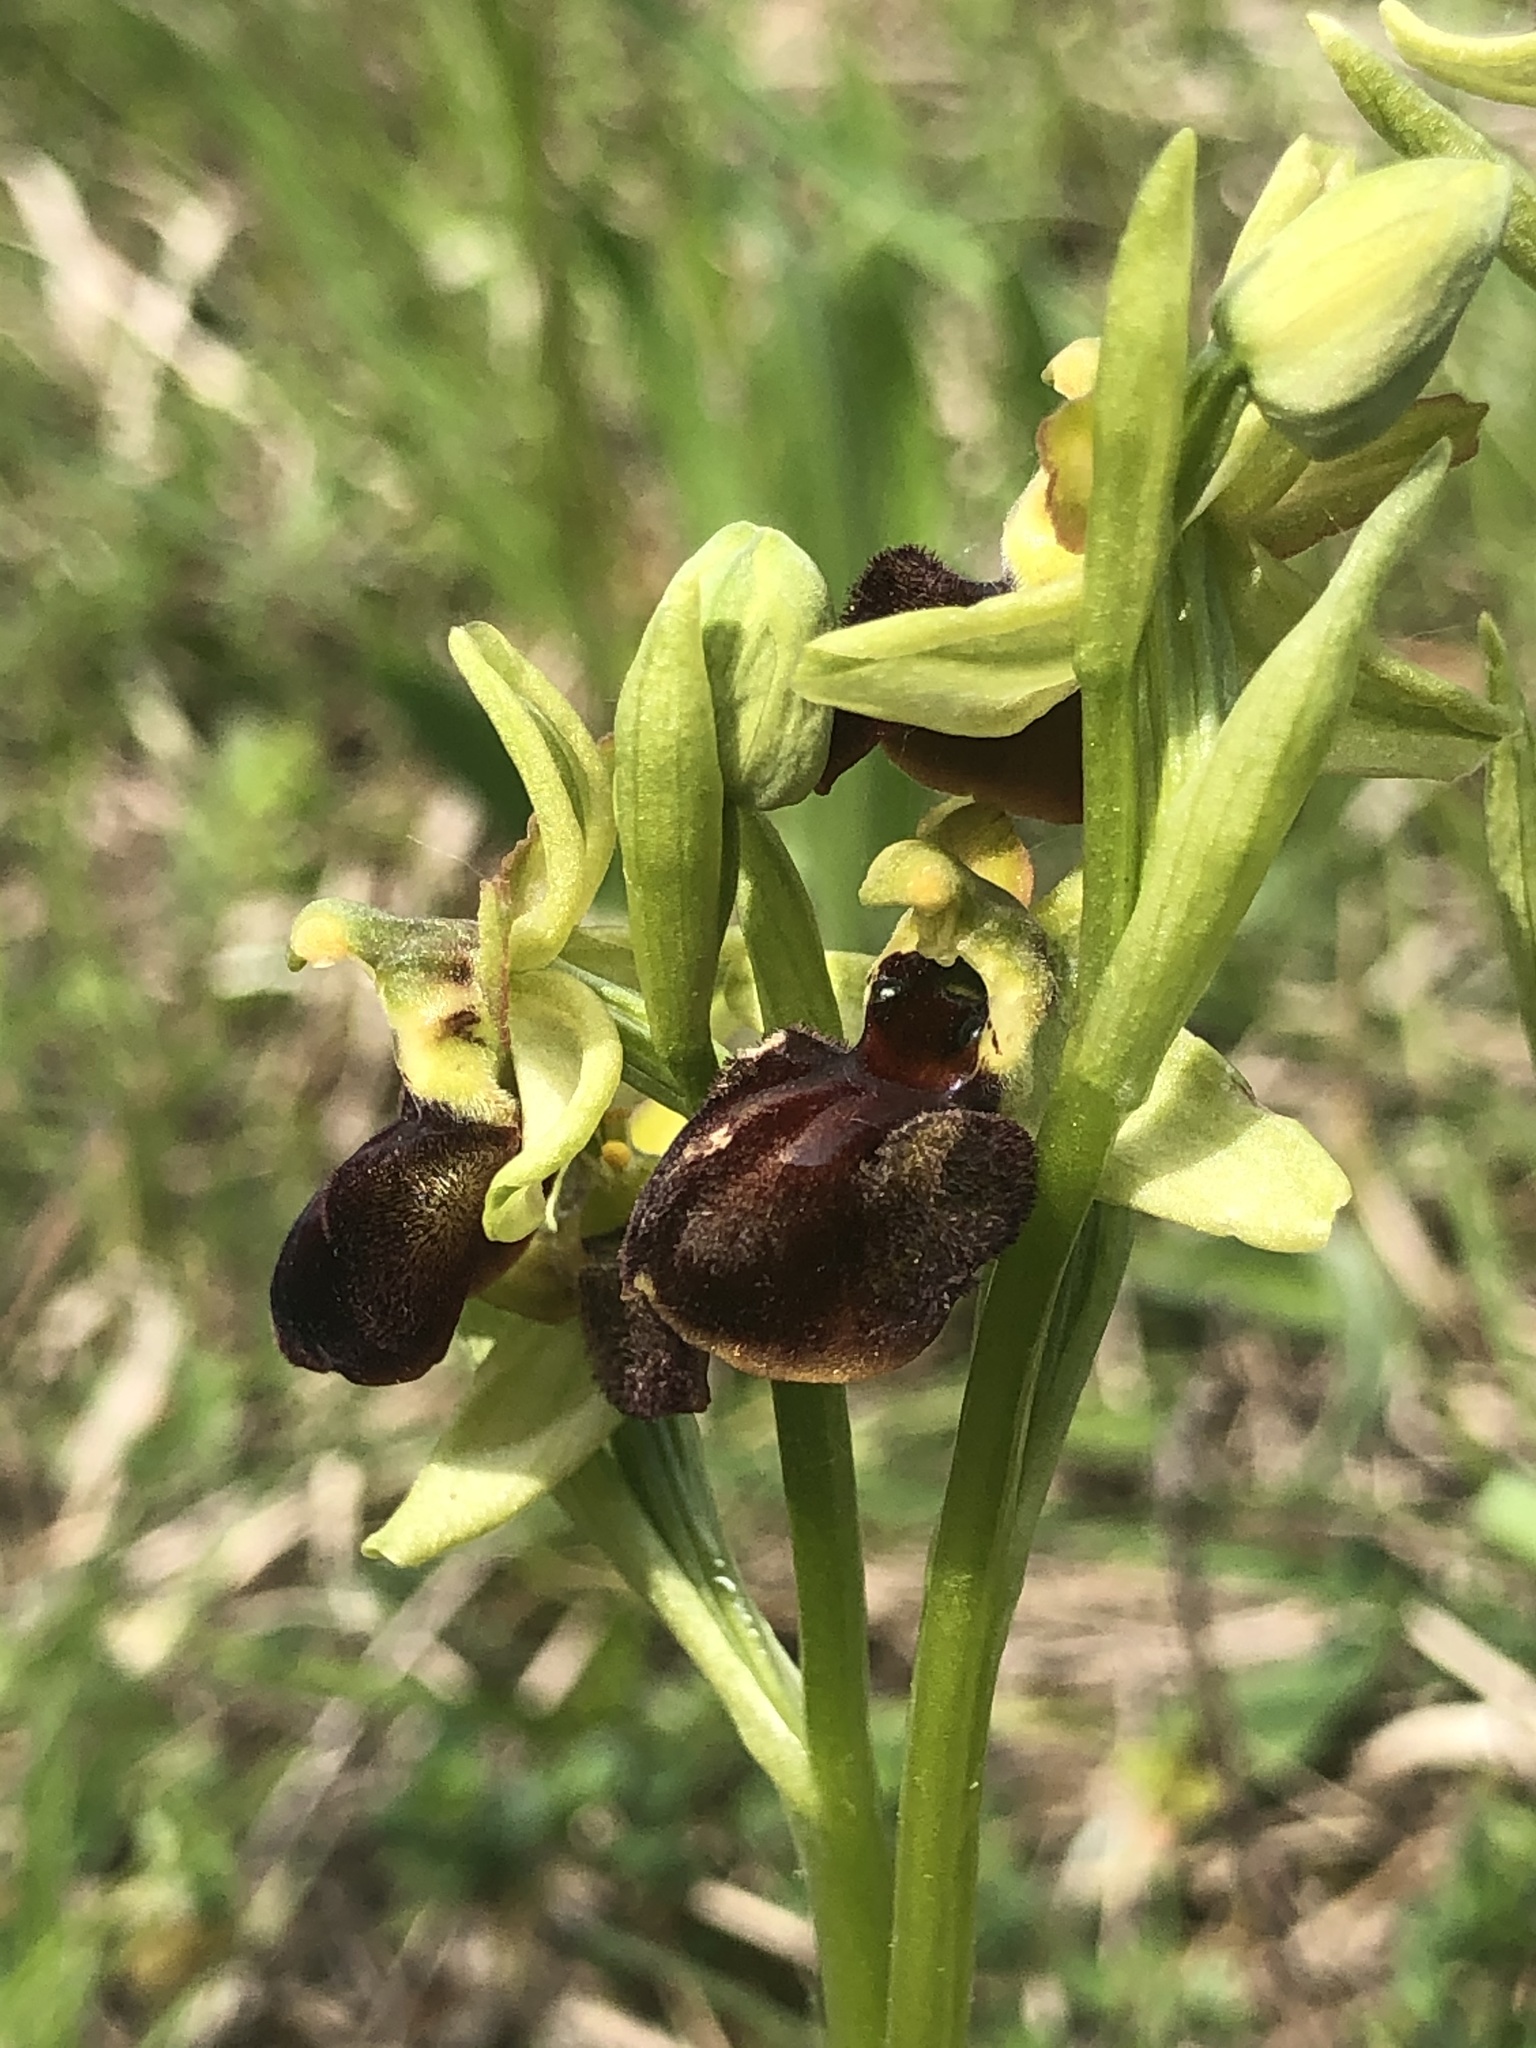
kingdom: Plantae
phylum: Tracheophyta
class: Liliopsida
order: Asparagales
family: Orchidaceae
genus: Ophrys
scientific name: Ophrys sphegodes
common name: Early spider-orchid
